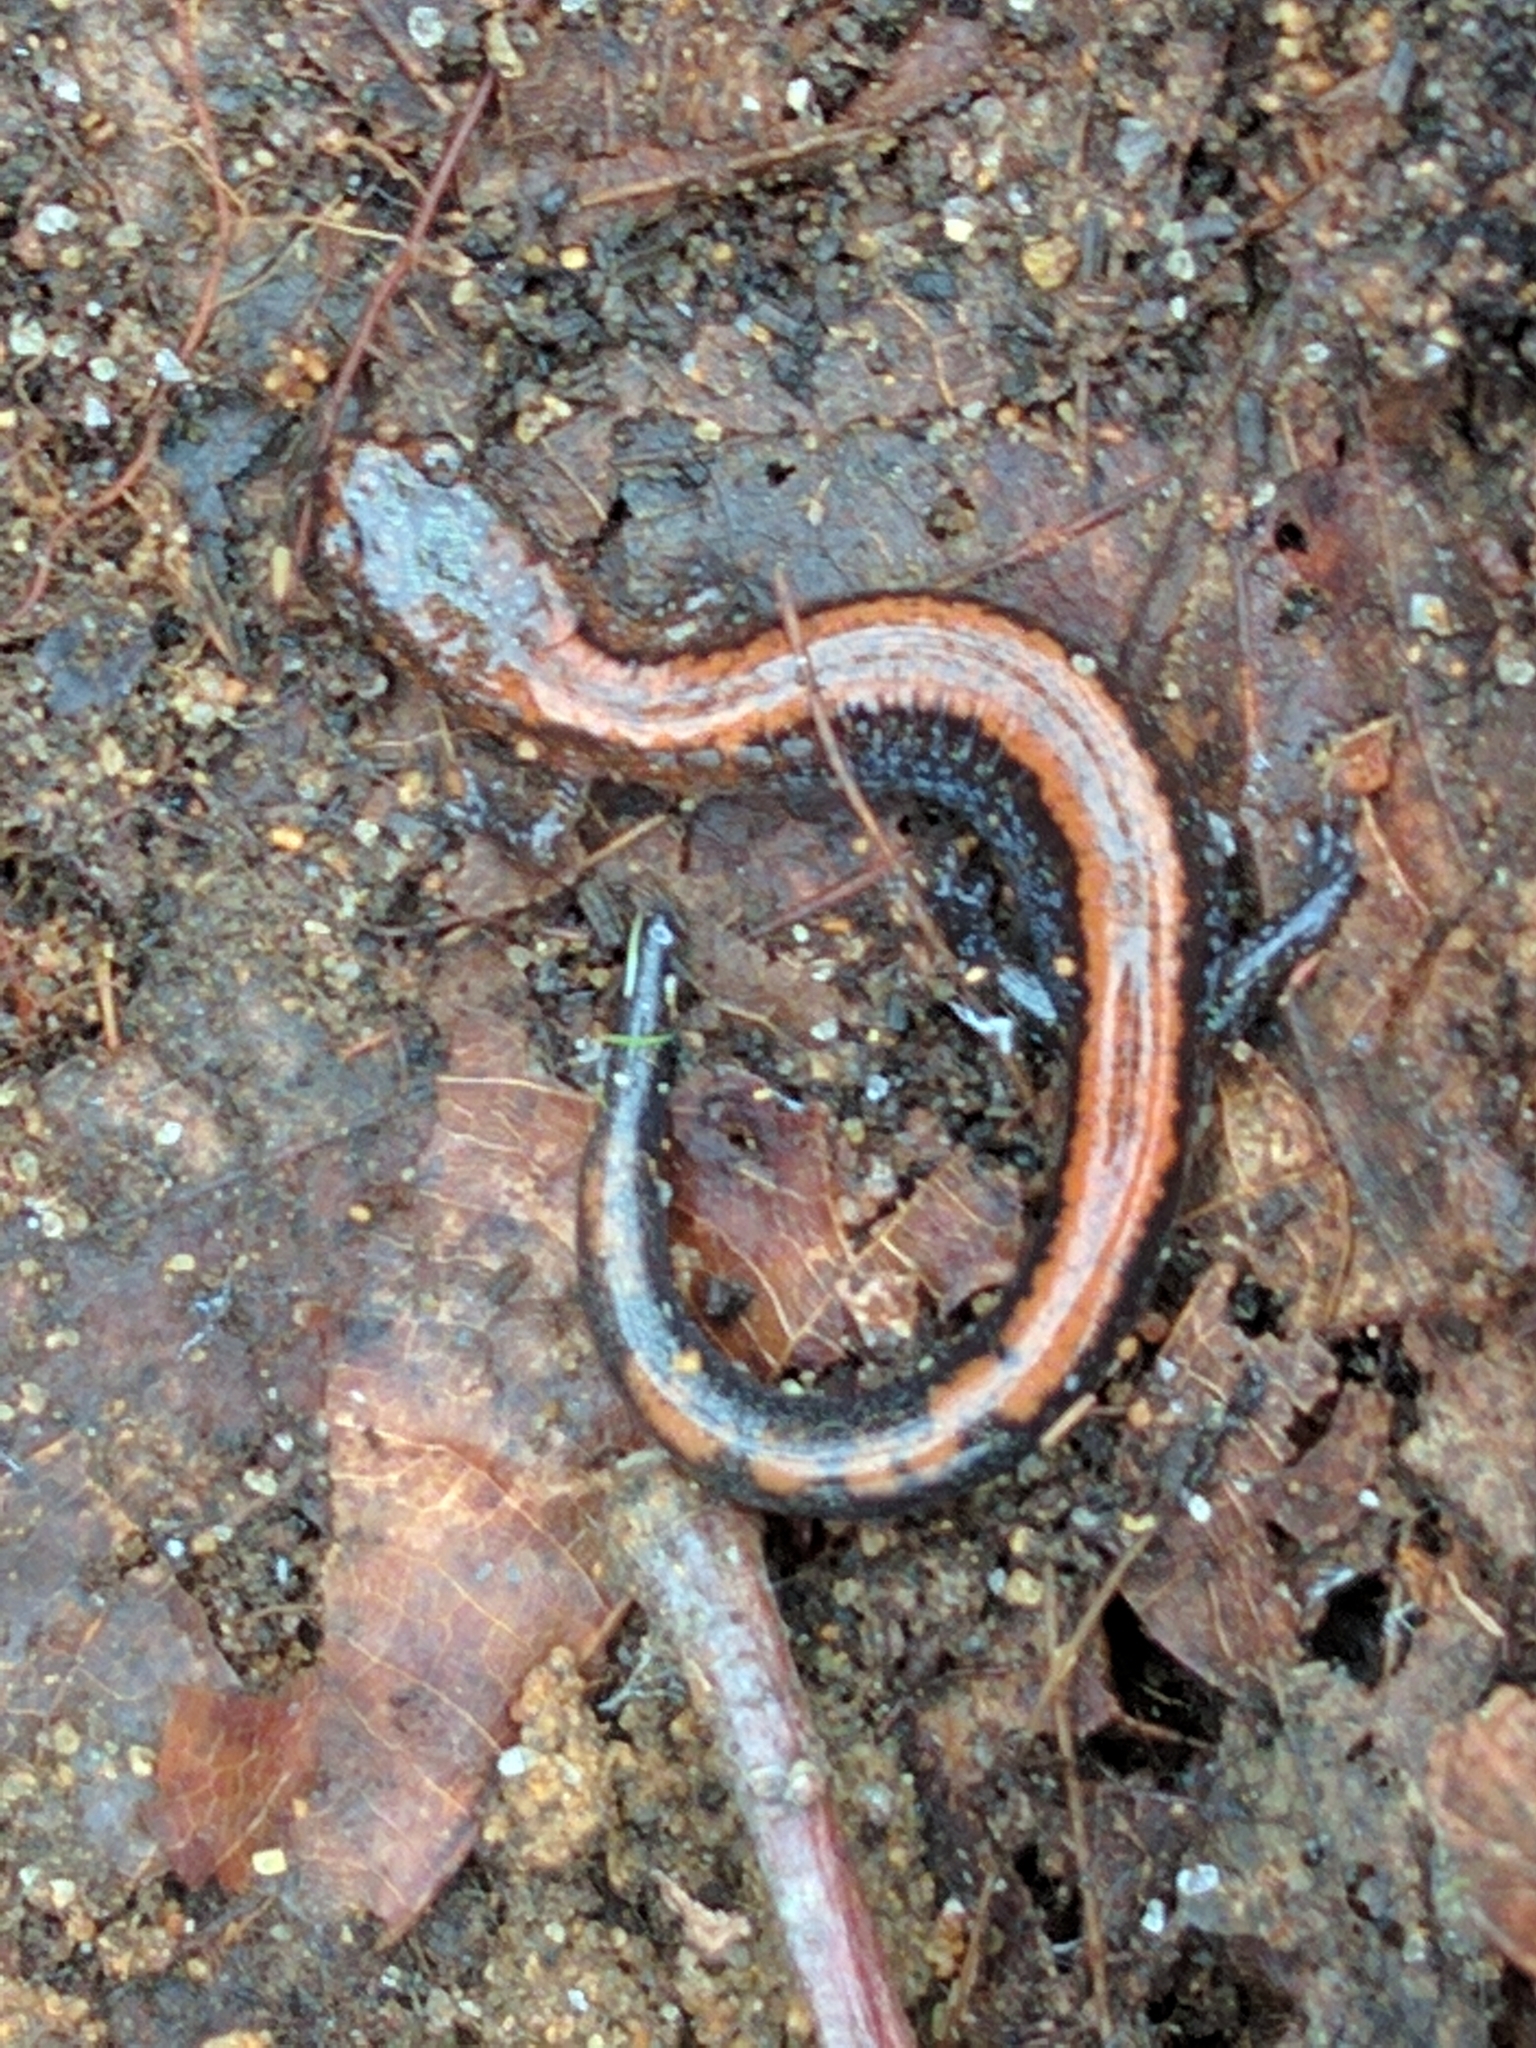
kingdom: Animalia
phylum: Chordata
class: Amphibia
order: Caudata
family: Plethodontidae
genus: Plethodon
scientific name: Plethodon cinereus
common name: Redback salamander
